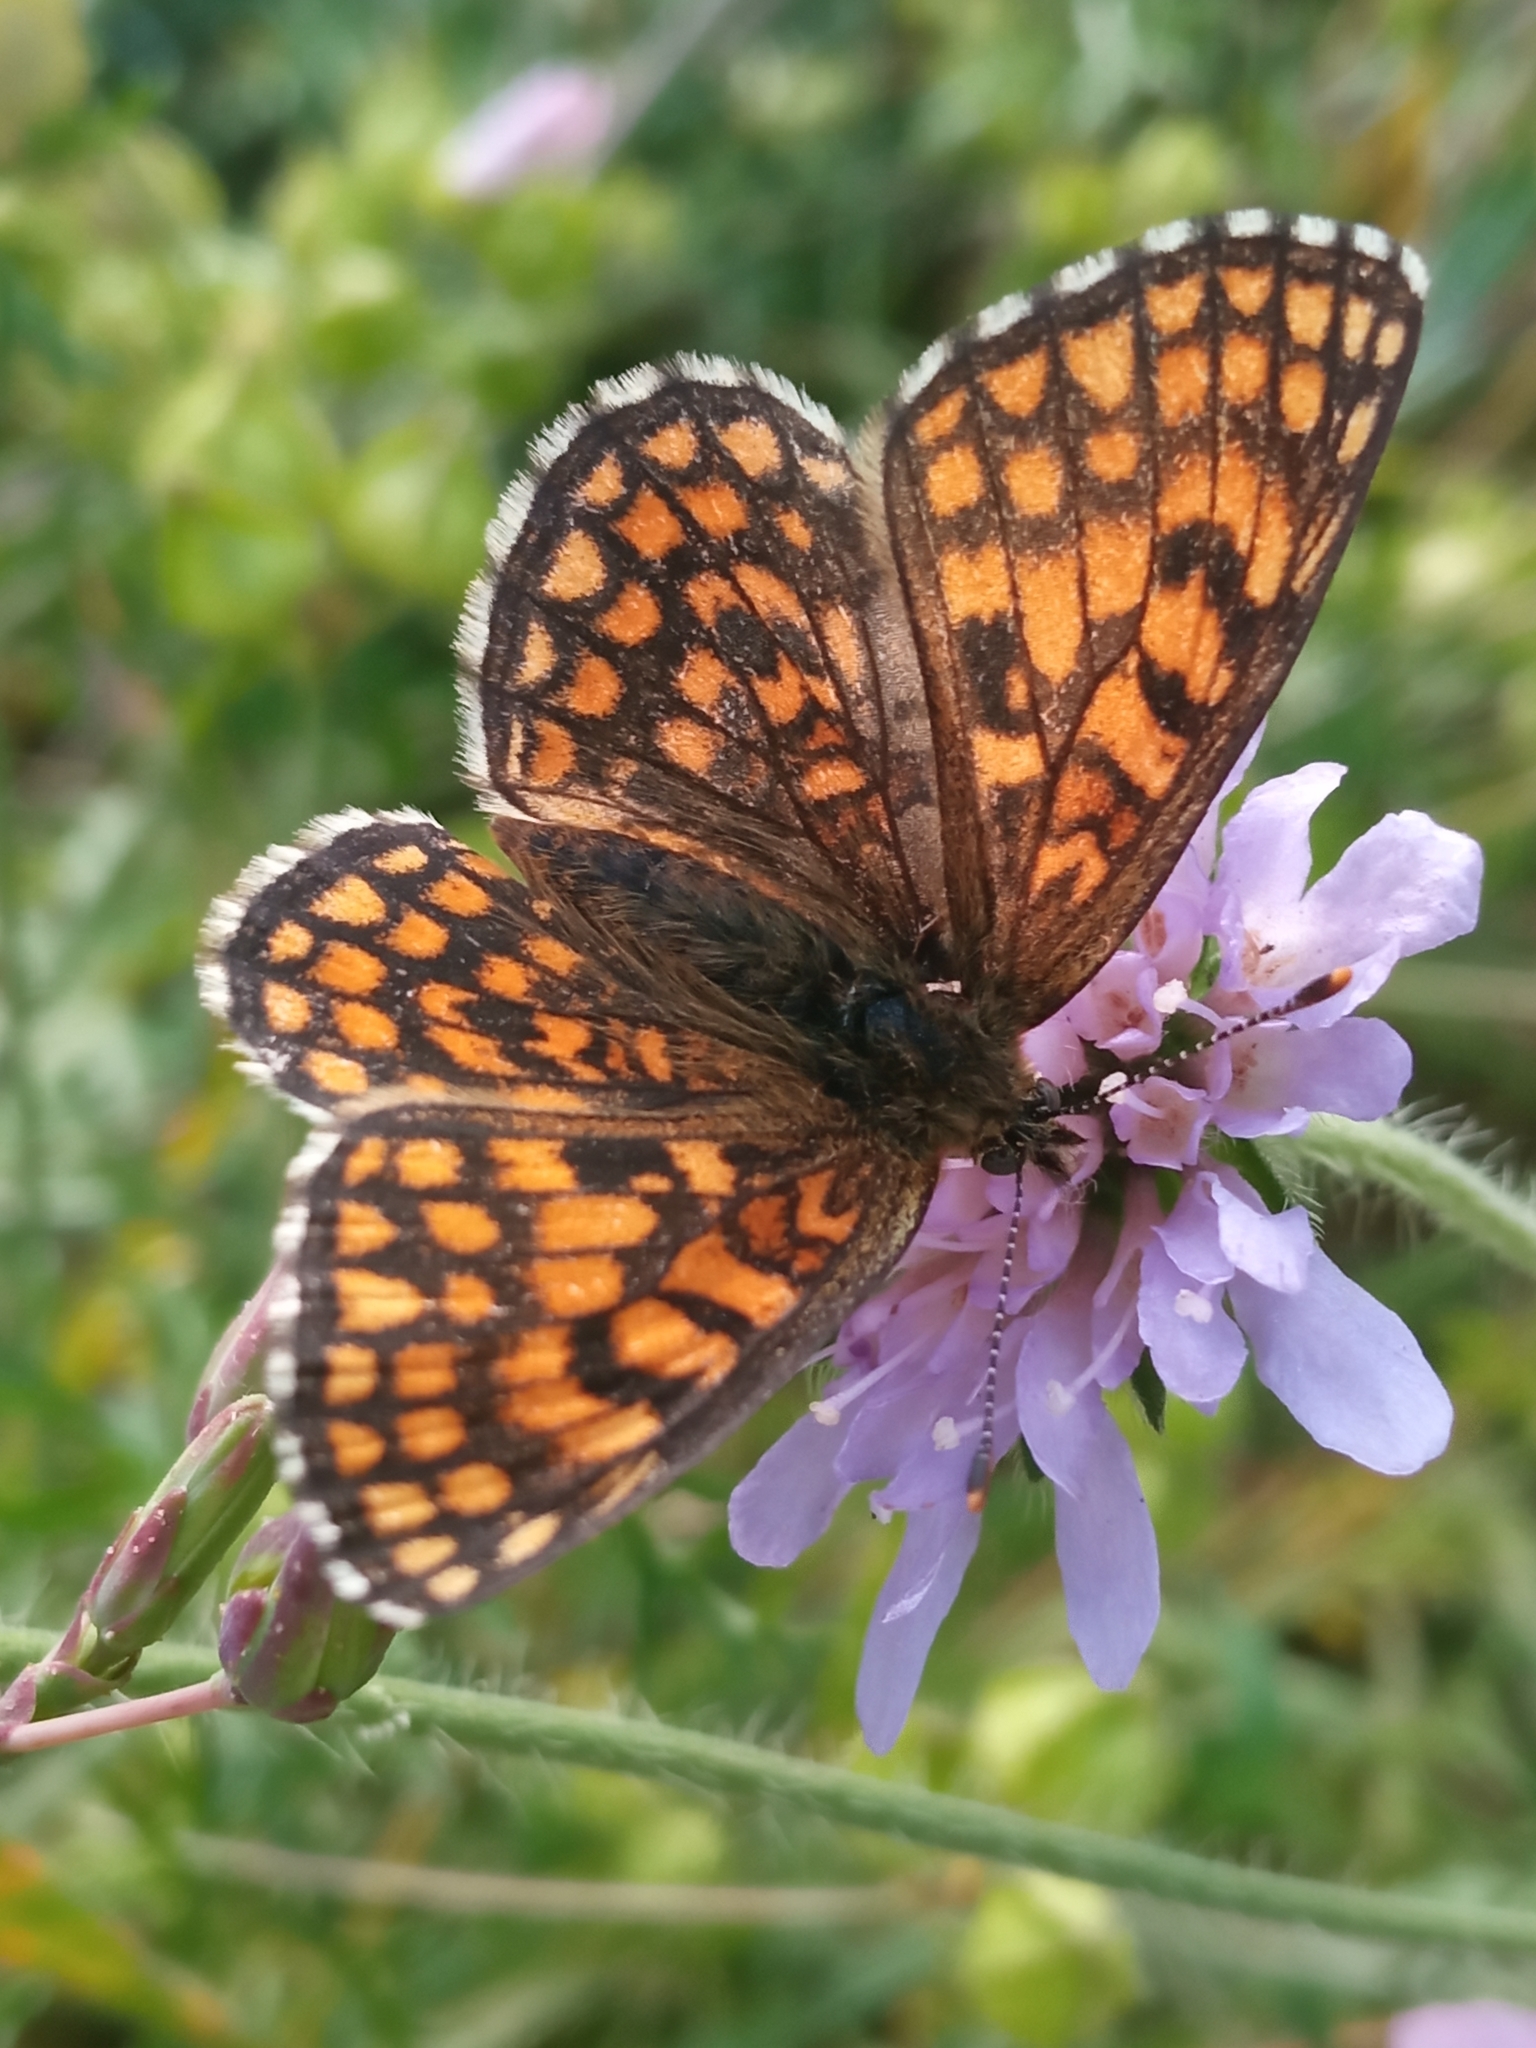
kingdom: Animalia
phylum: Arthropoda
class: Insecta
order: Lepidoptera
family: Nymphalidae
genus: Melitaea
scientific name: Melitaea athalia
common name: Heath fritillary
